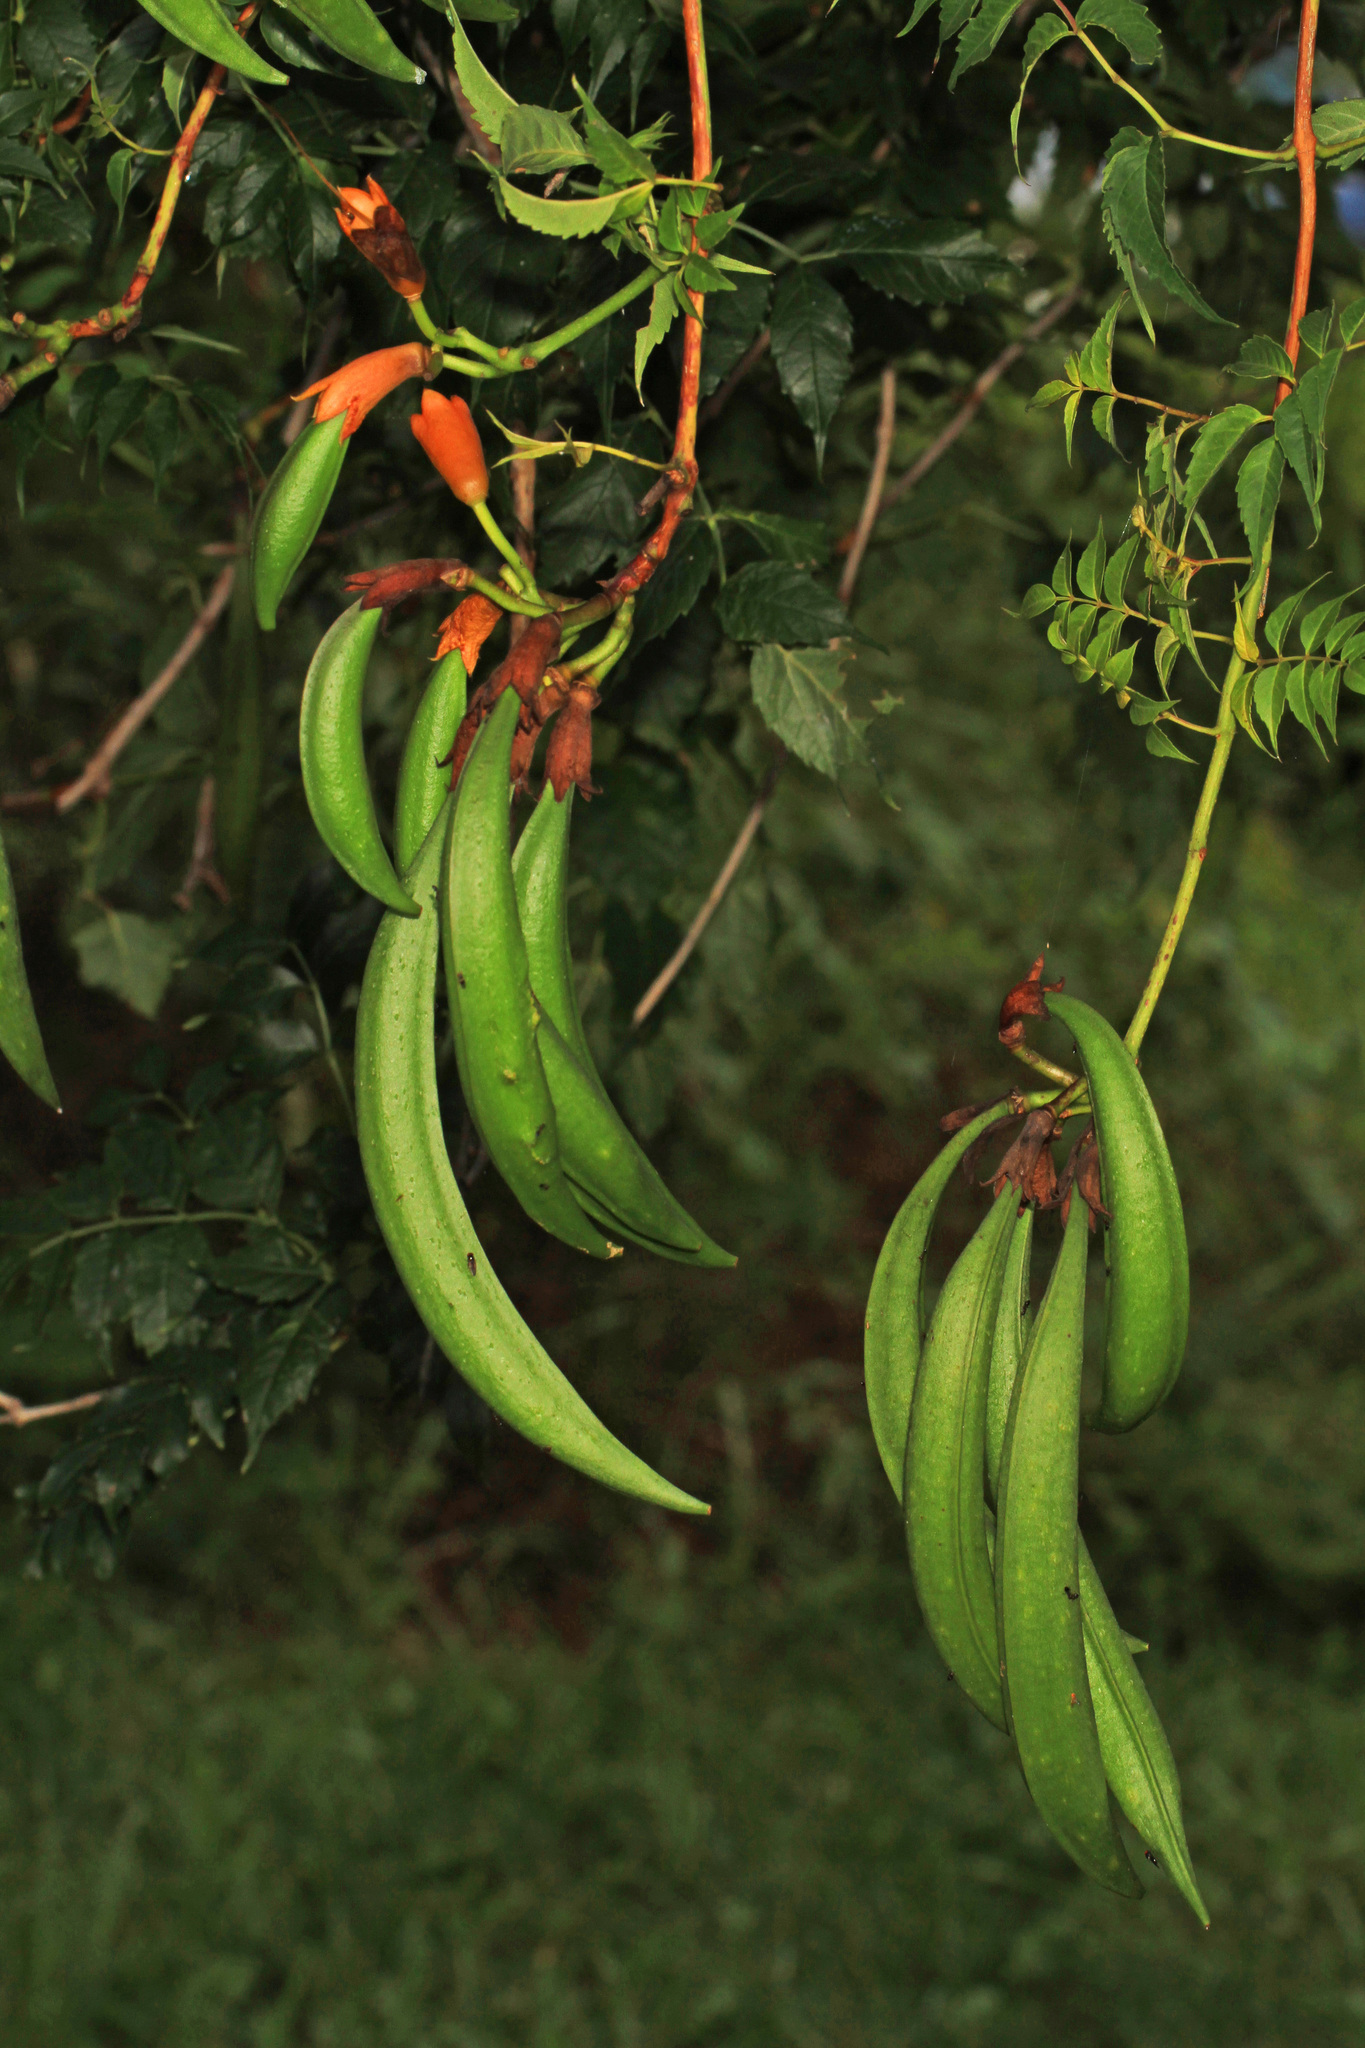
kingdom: Plantae
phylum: Tracheophyta
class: Magnoliopsida
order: Lamiales
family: Bignoniaceae
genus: Campsis
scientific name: Campsis radicans
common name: Trumpet-creeper
